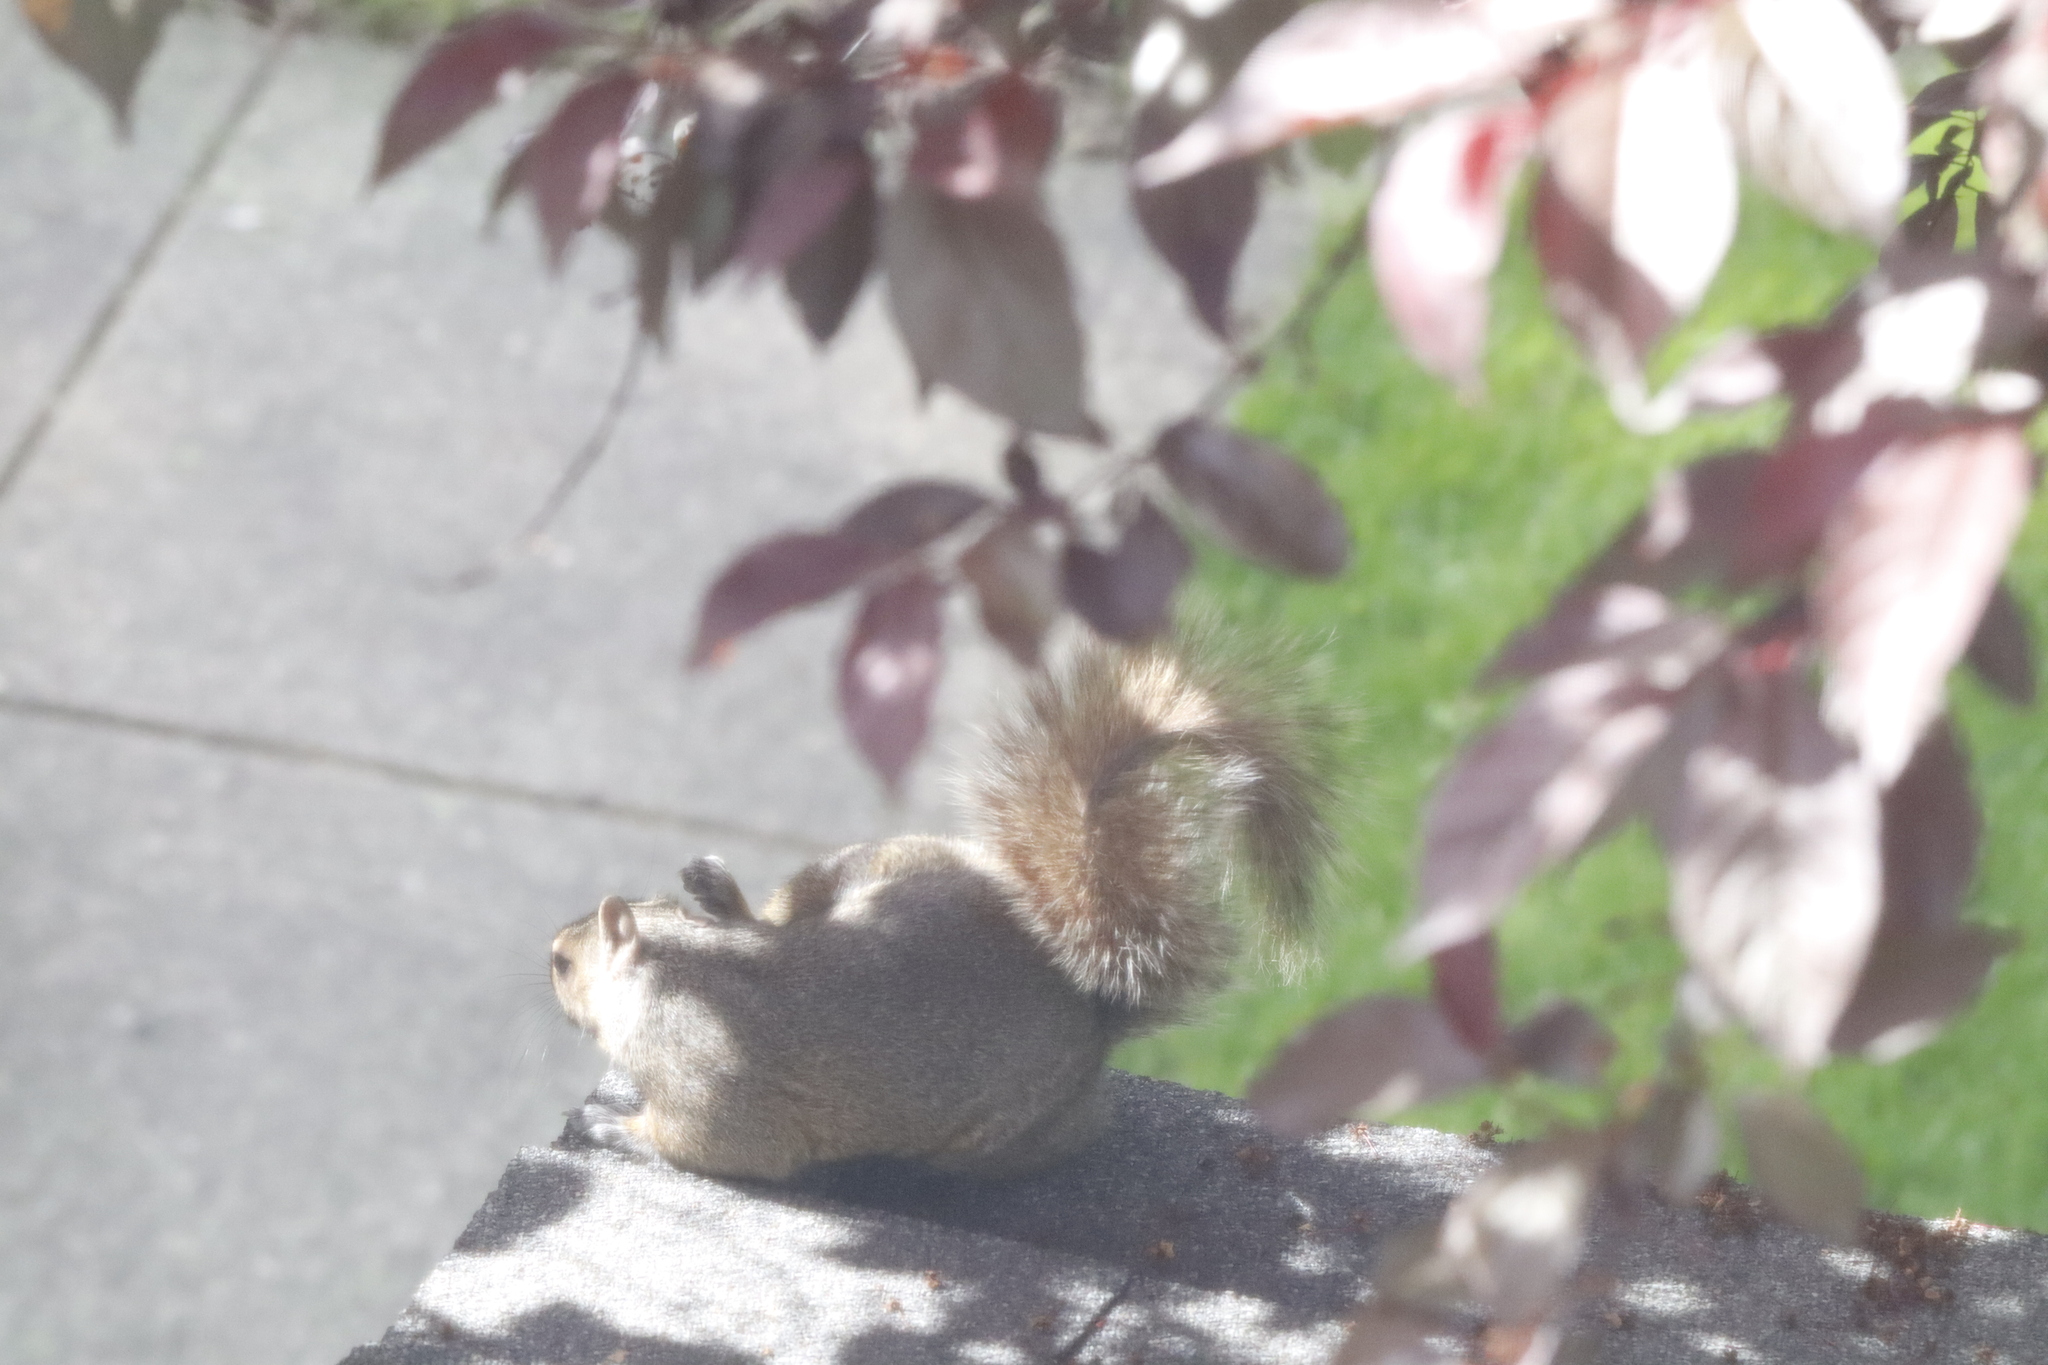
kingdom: Animalia
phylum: Chordata
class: Mammalia
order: Rodentia
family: Sciuridae
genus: Sciurus
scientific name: Sciurus carolinensis
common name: Eastern gray squirrel
